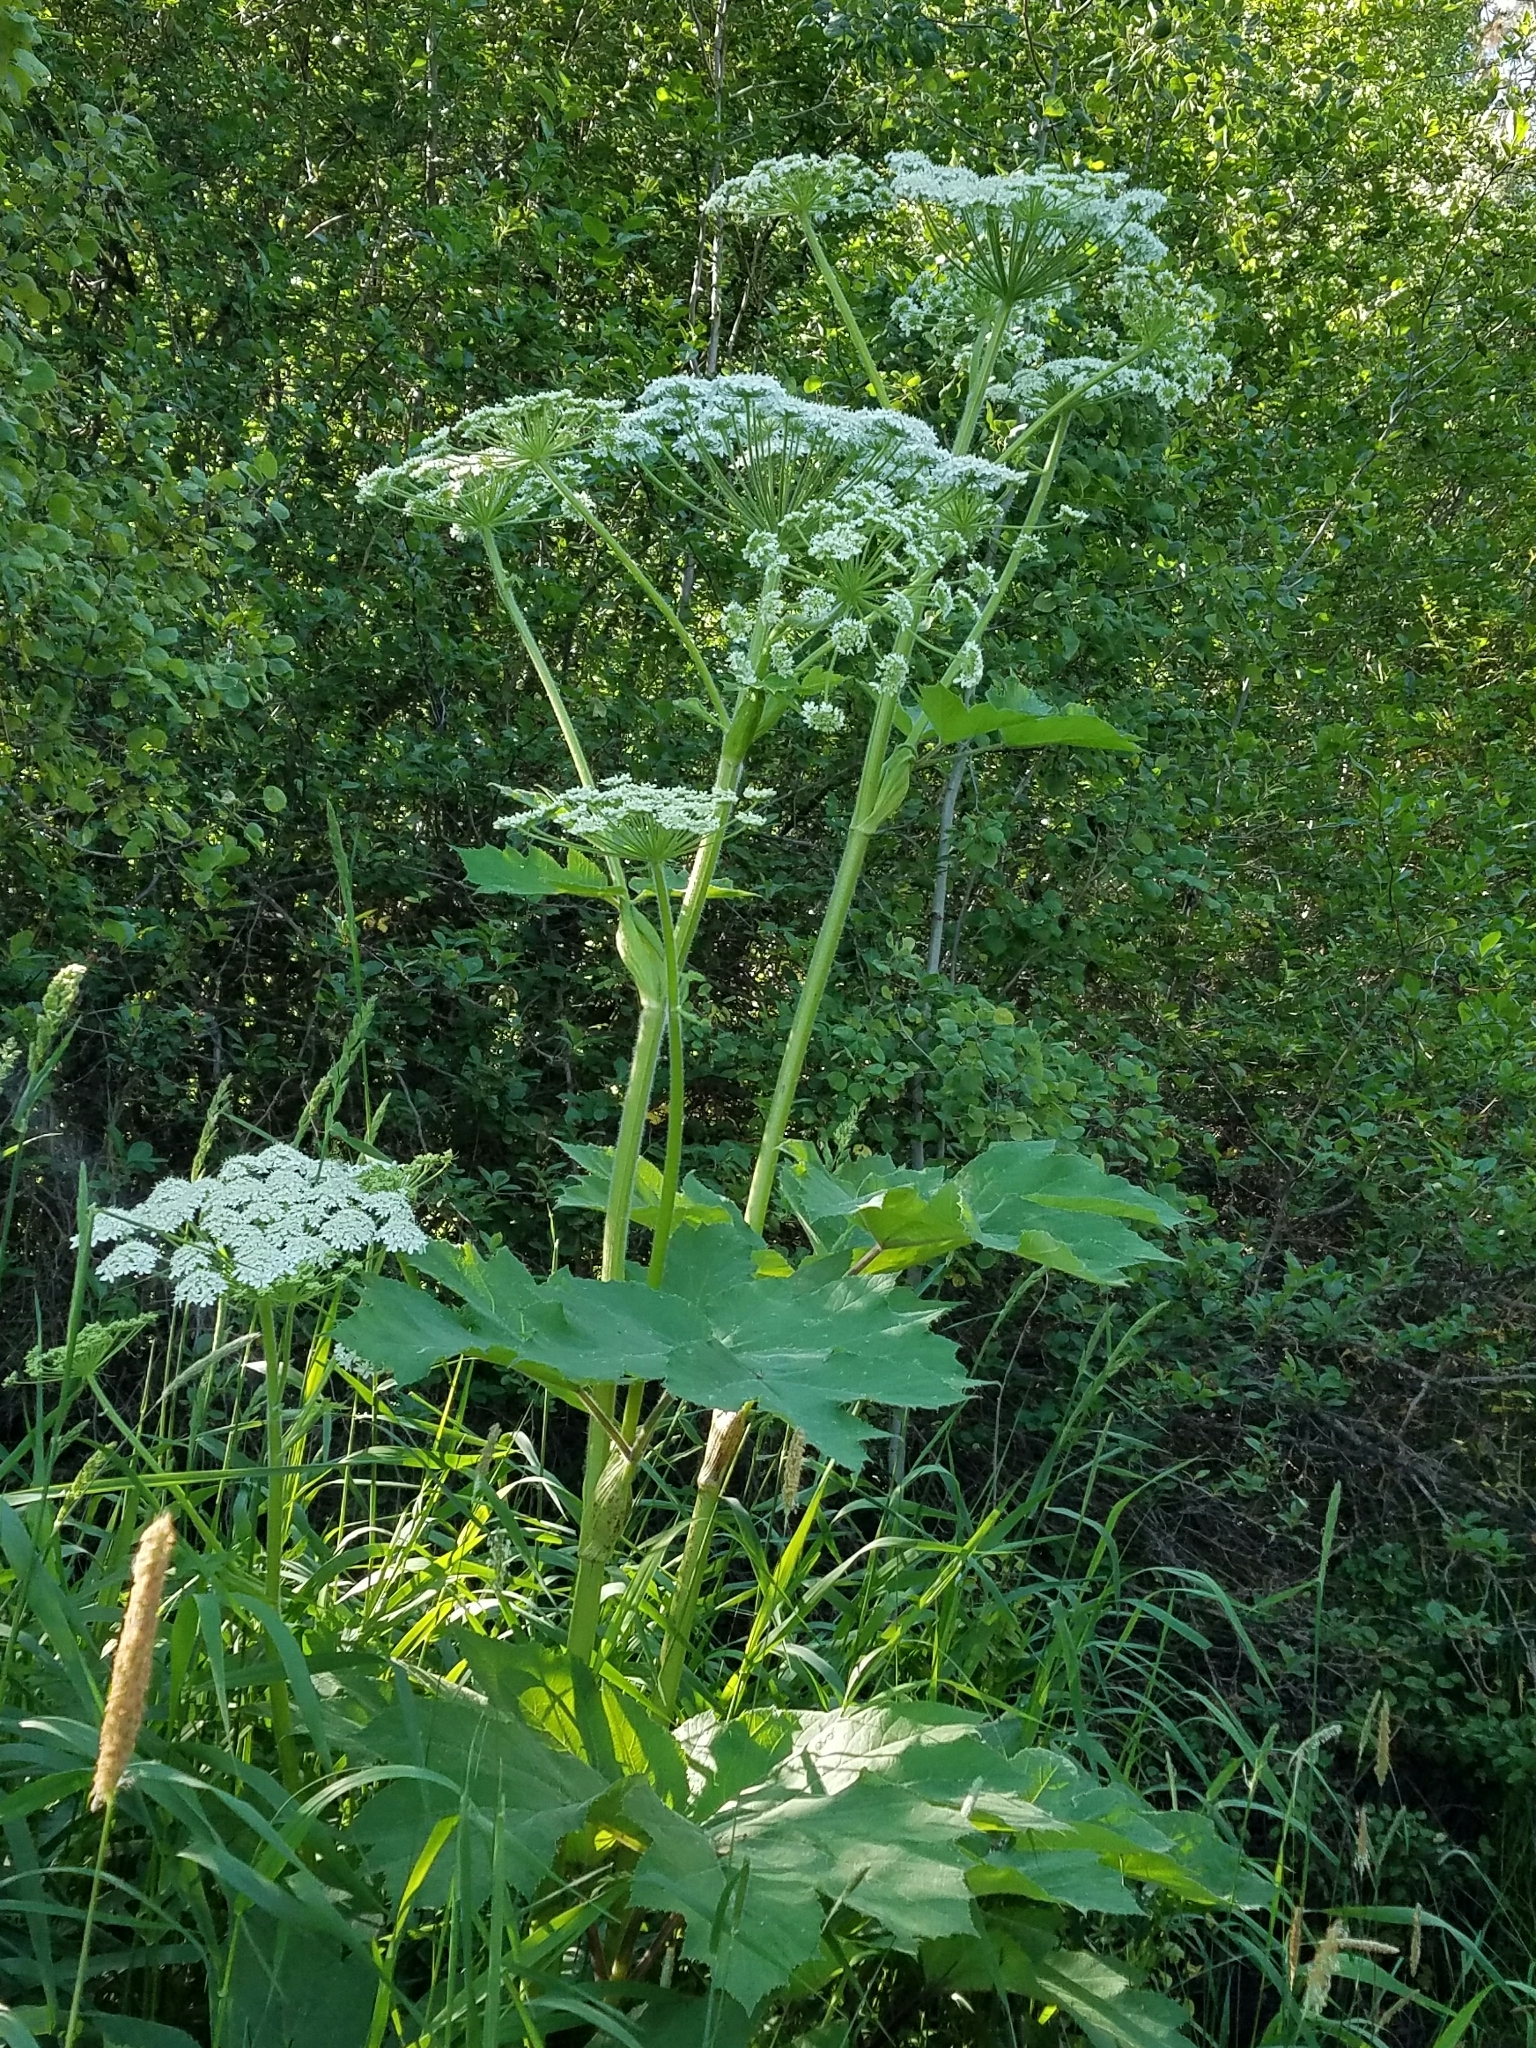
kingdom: Plantae
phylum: Tracheophyta
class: Magnoliopsida
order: Apiales
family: Apiaceae
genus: Heracleum
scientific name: Heracleum maximum
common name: American cow parsnip
